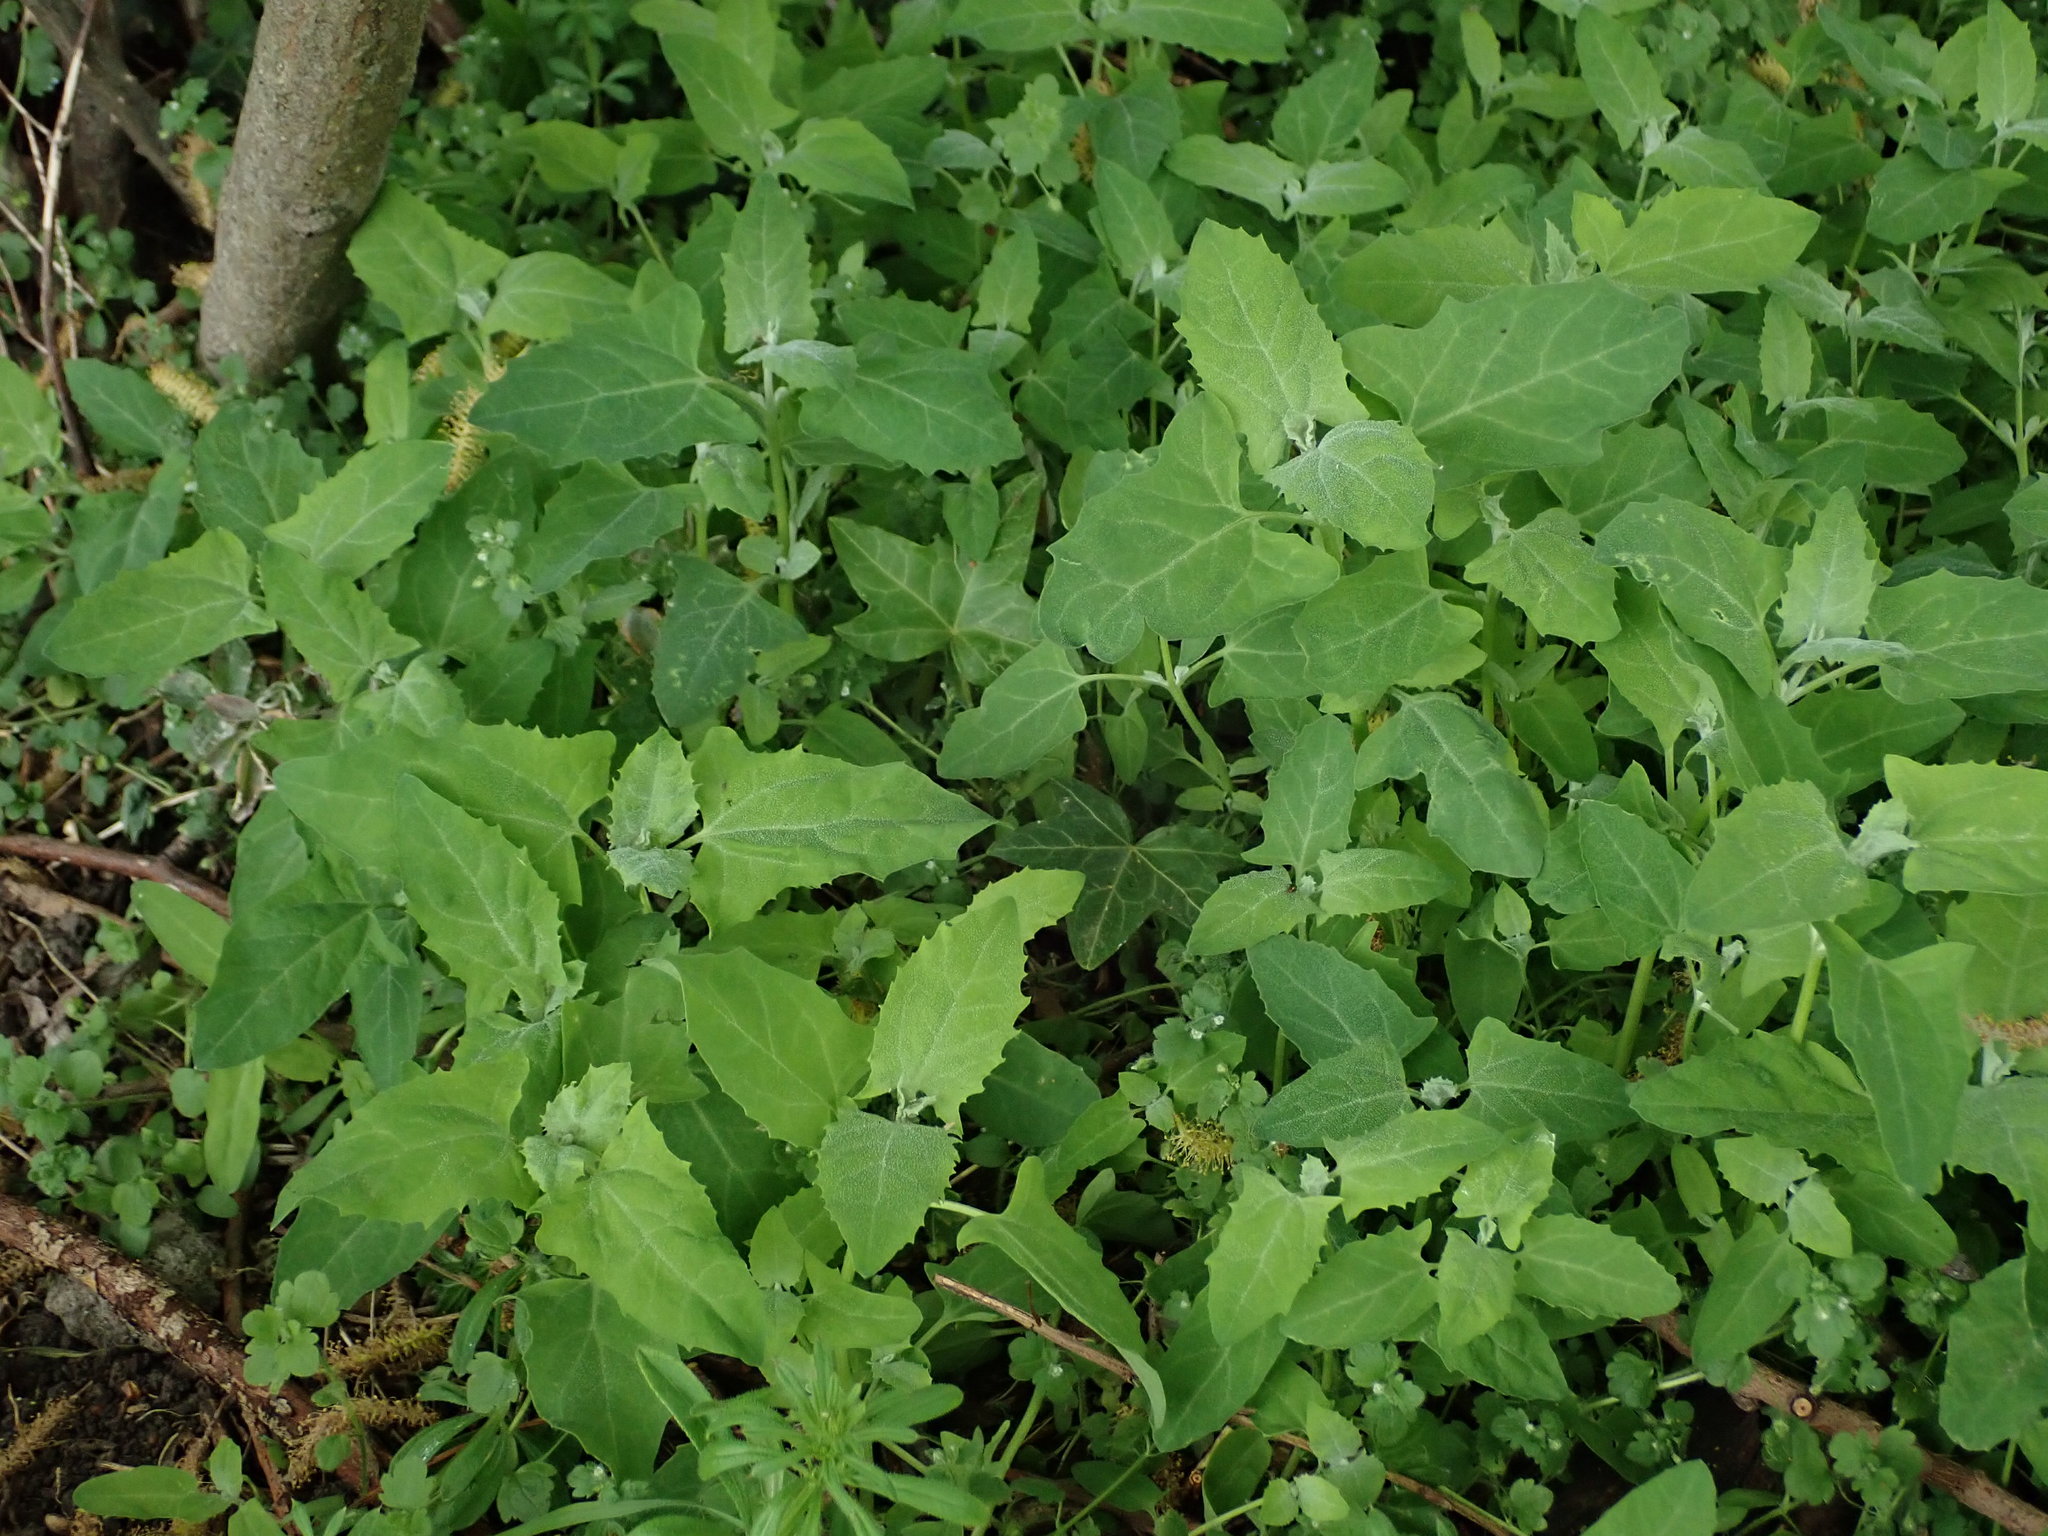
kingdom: Plantae
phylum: Tracheophyta
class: Magnoliopsida
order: Caryophyllales
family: Amaranthaceae
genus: Chenopodium
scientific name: Chenopodium album
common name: Fat-hen
